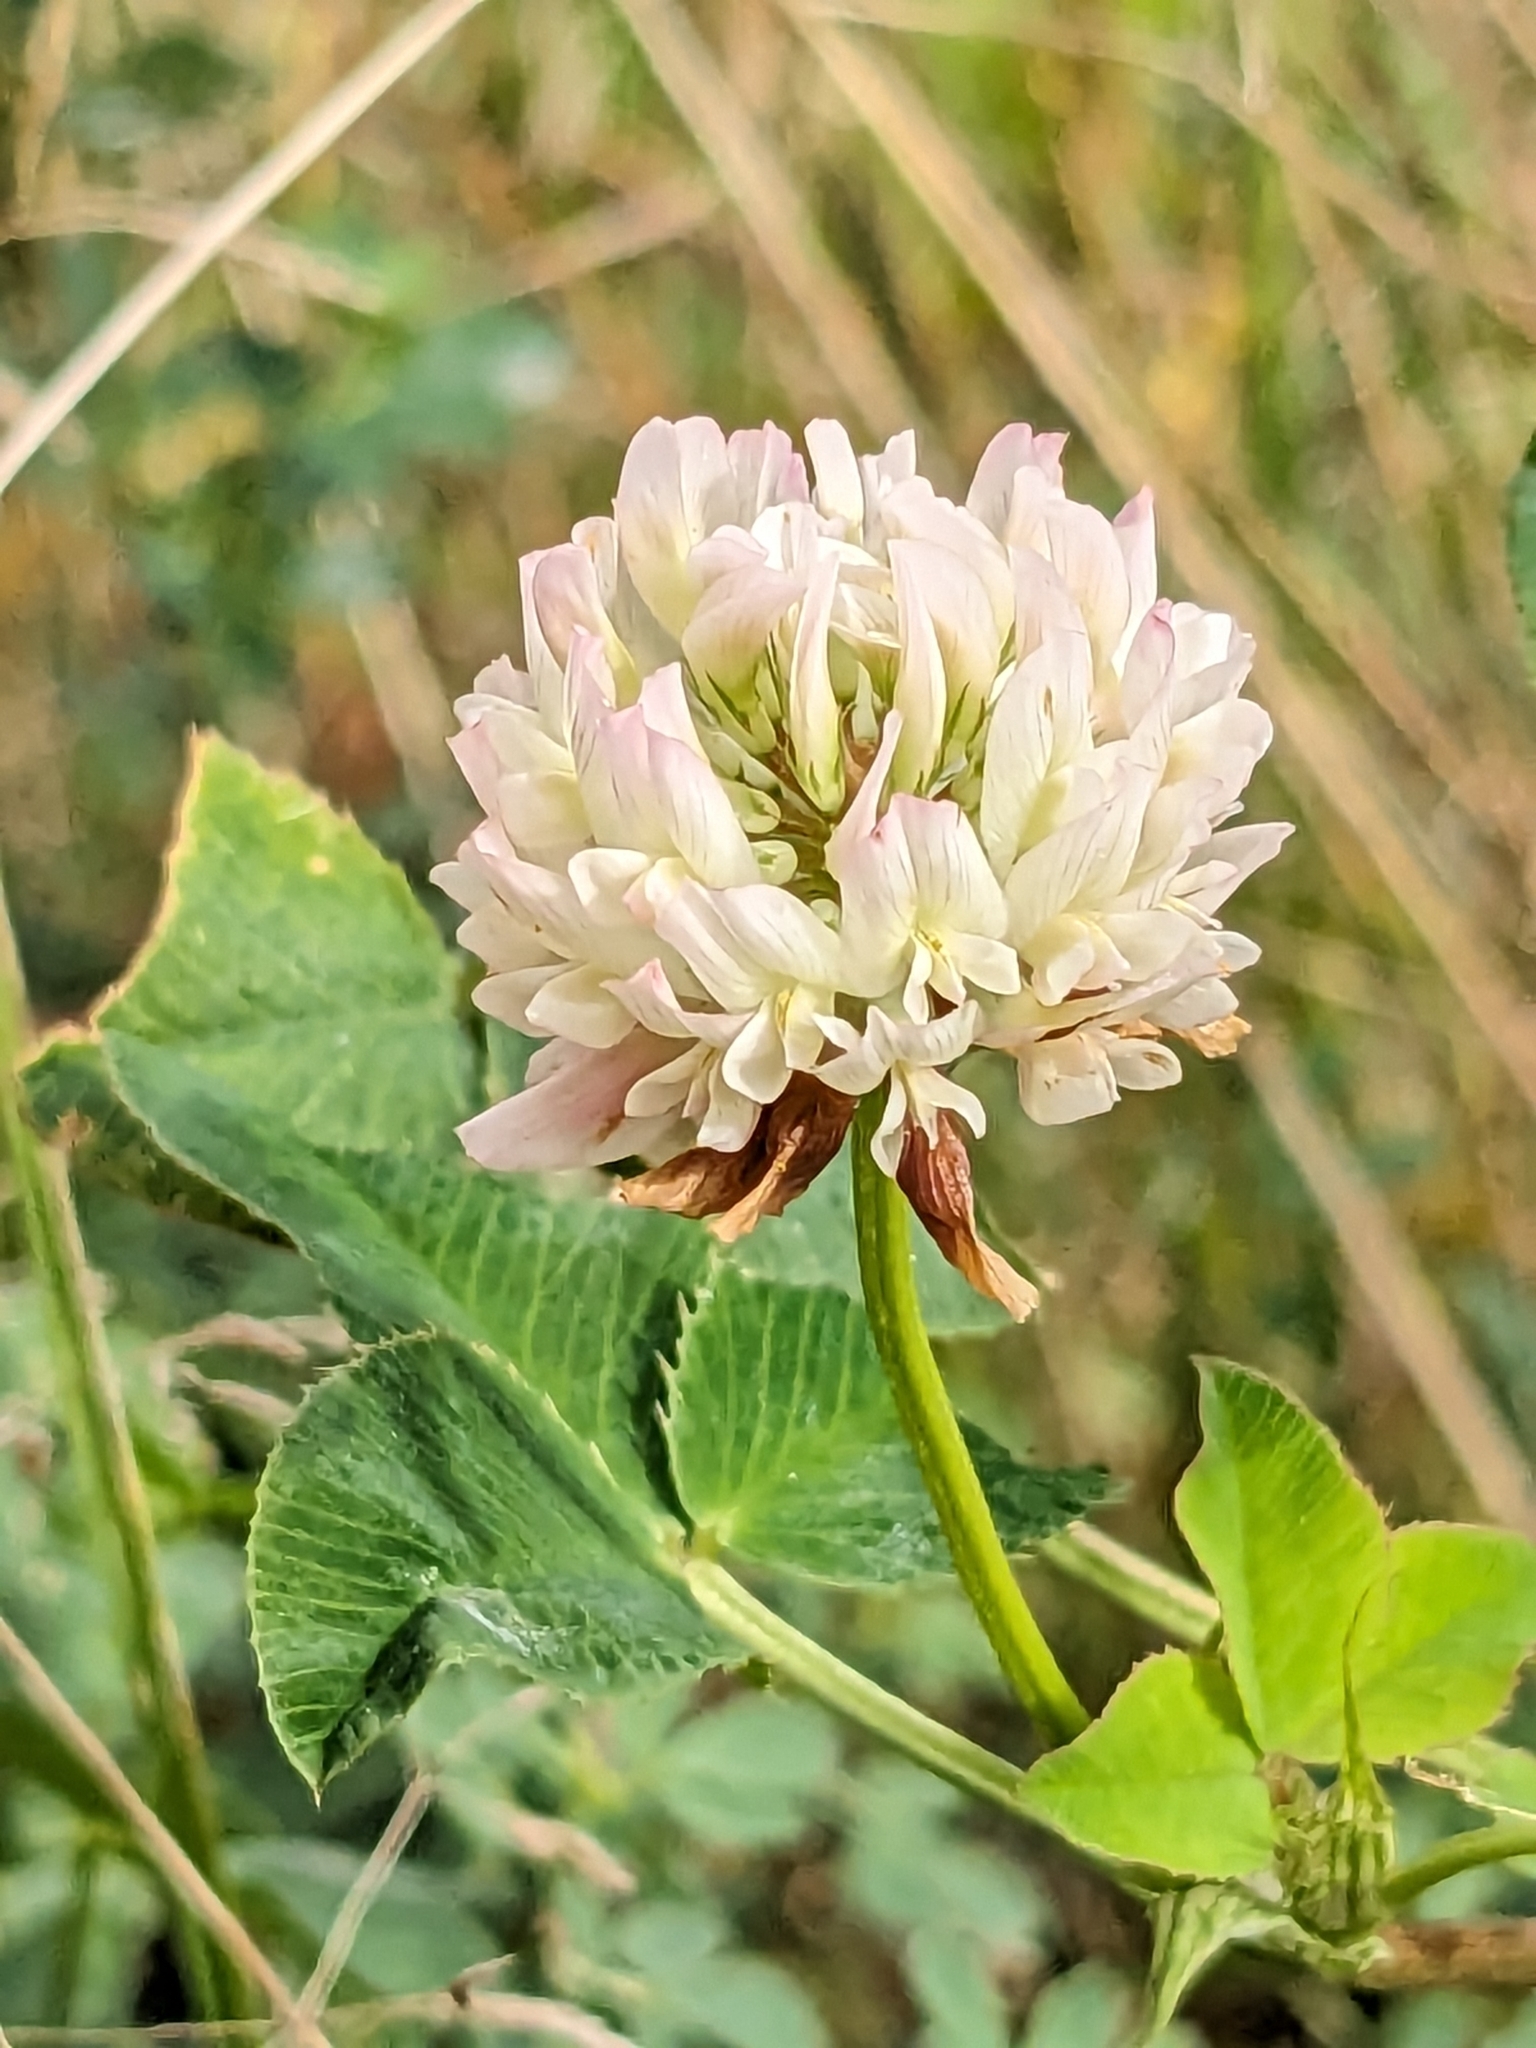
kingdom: Plantae
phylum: Tracheophyta
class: Magnoliopsida
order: Fabales
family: Fabaceae
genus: Trifolium
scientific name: Trifolium hybridum
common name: Alsike clover
